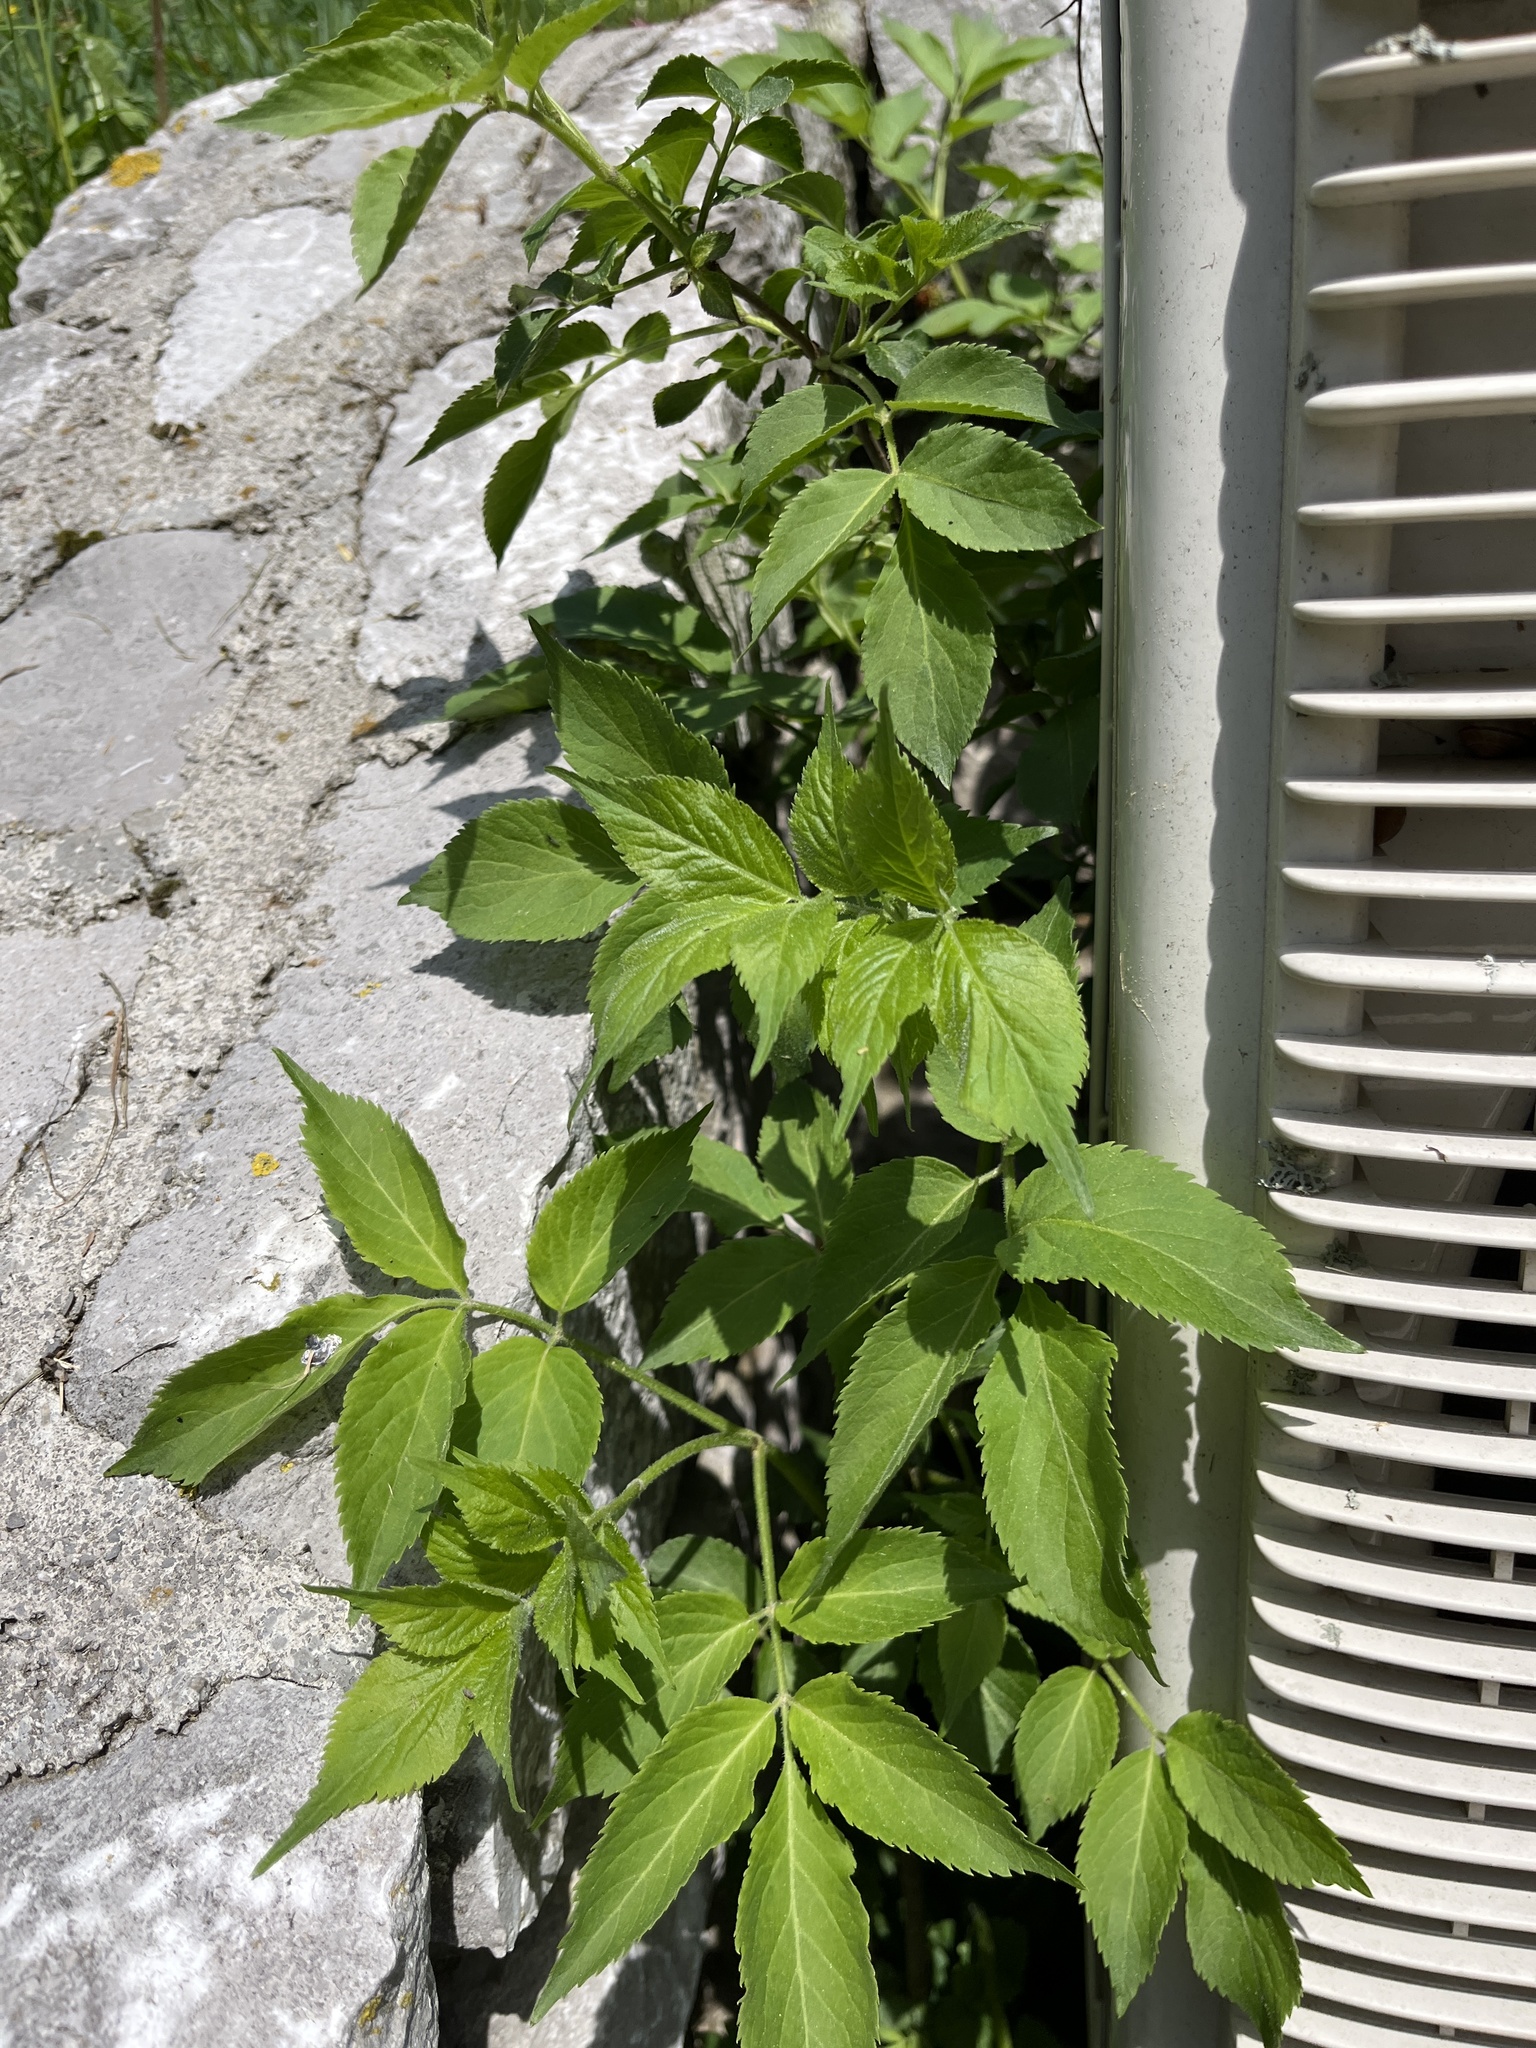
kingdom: Plantae
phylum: Tracheophyta
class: Magnoliopsida
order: Dipsacales
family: Viburnaceae
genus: Sambucus
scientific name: Sambucus nigra
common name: Elder
